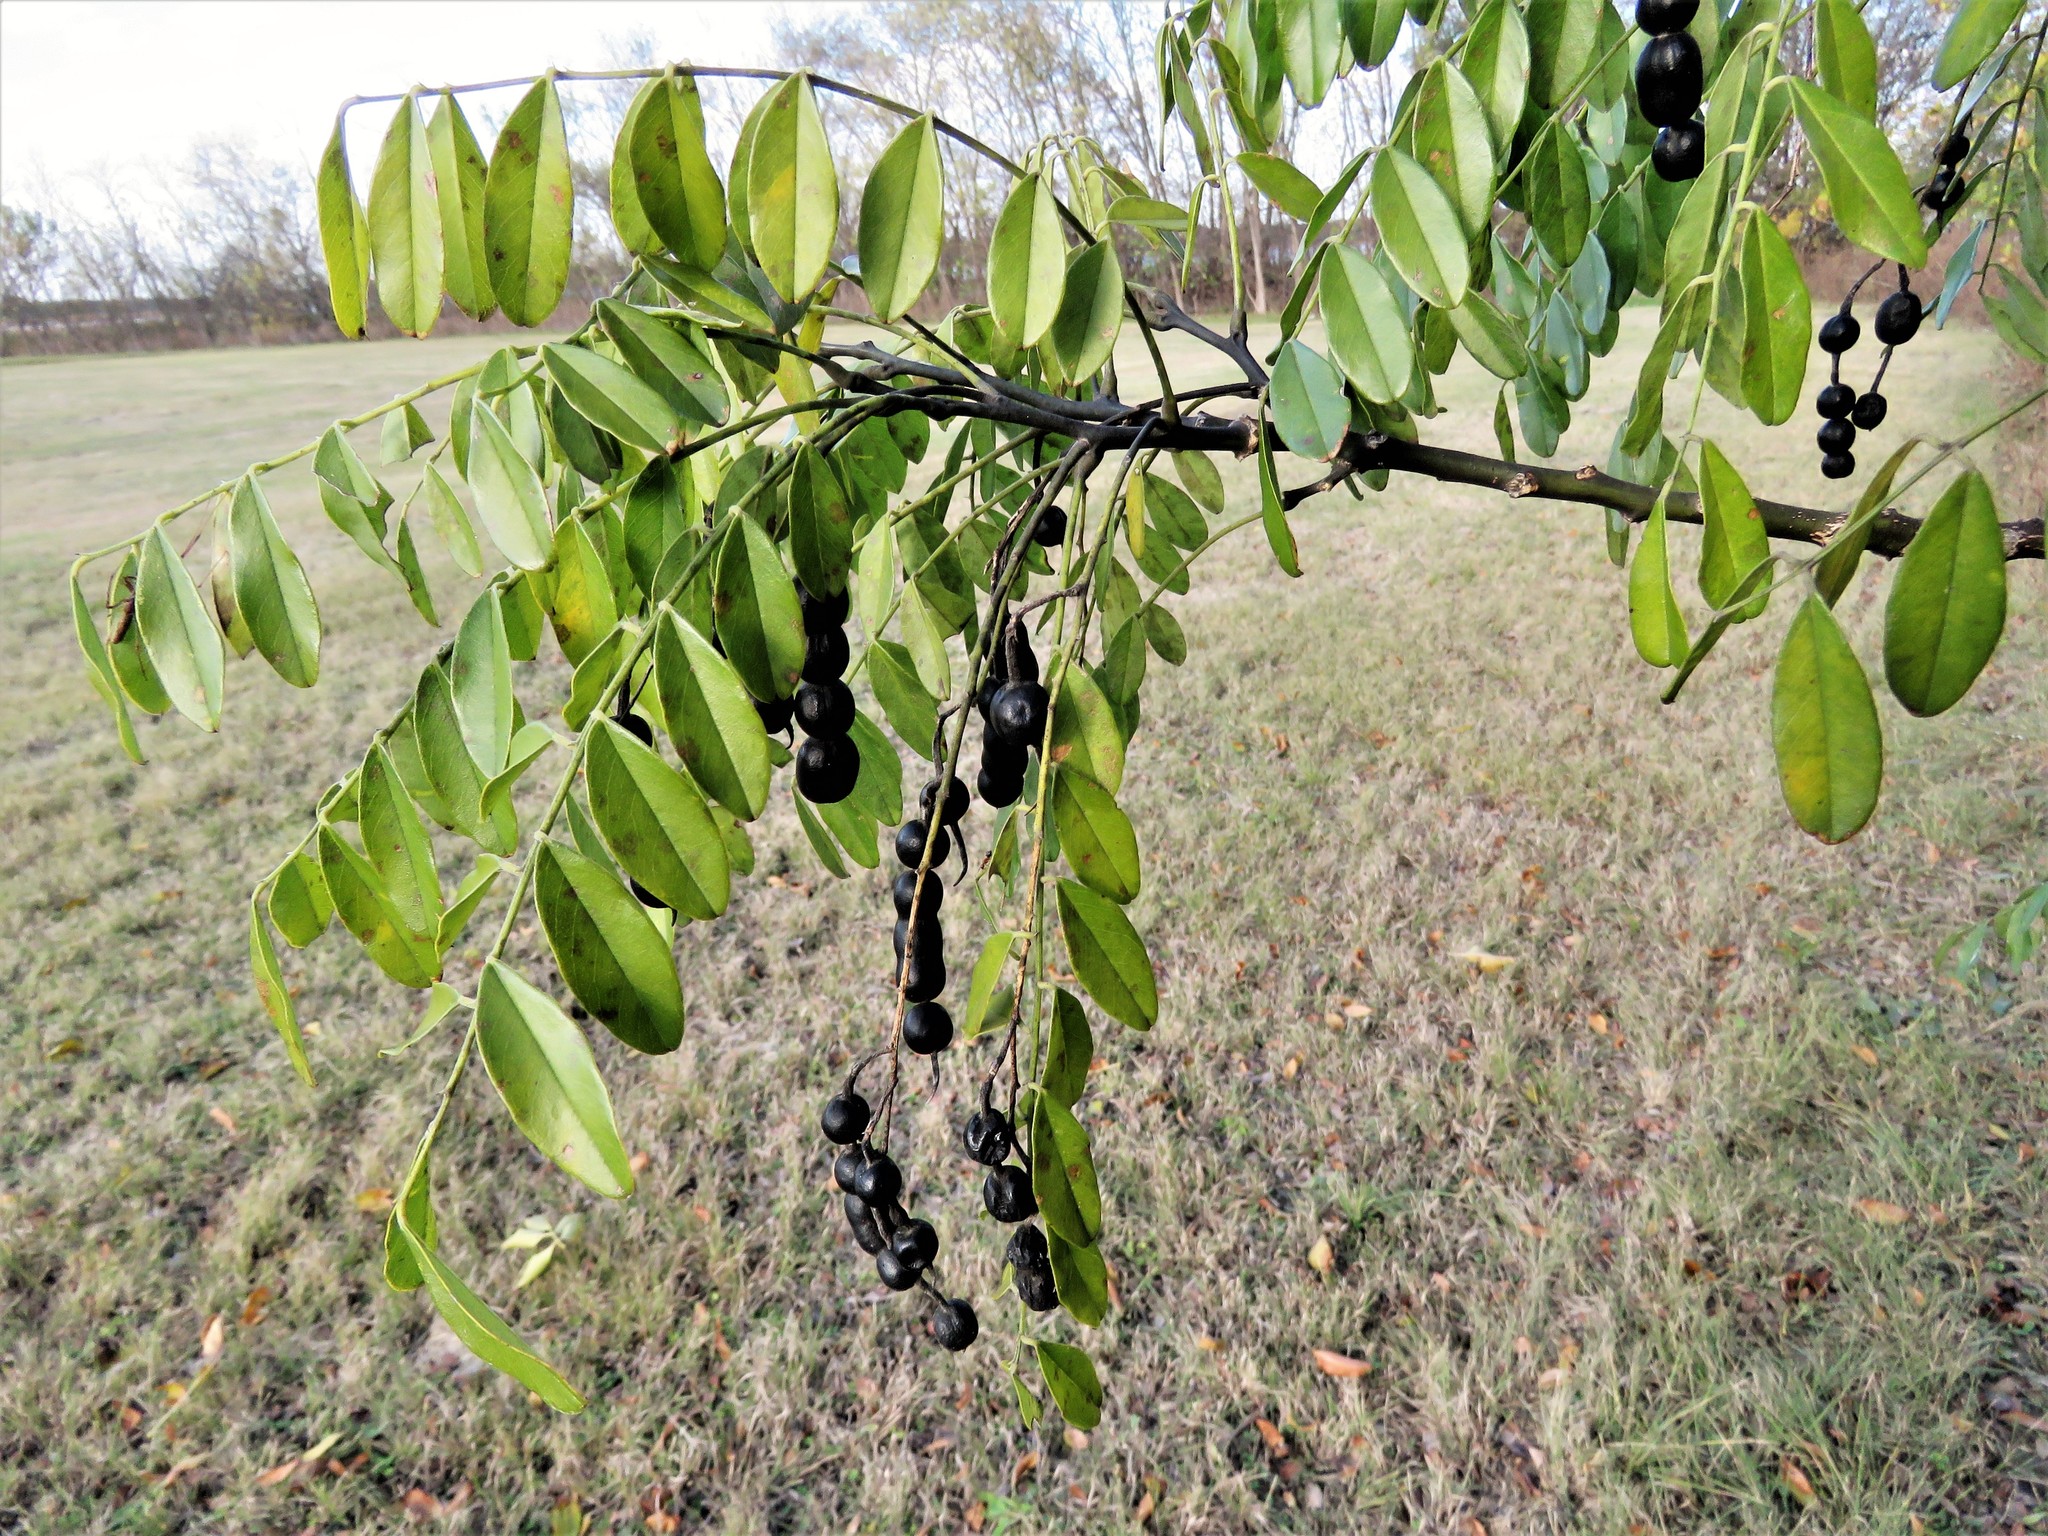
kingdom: Plantae
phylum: Tracheophyta
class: Magnoliopsida
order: Fabales
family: Fabaceae
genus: Styphnolobium
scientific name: Styphnolobium affine
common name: Texas sophora
